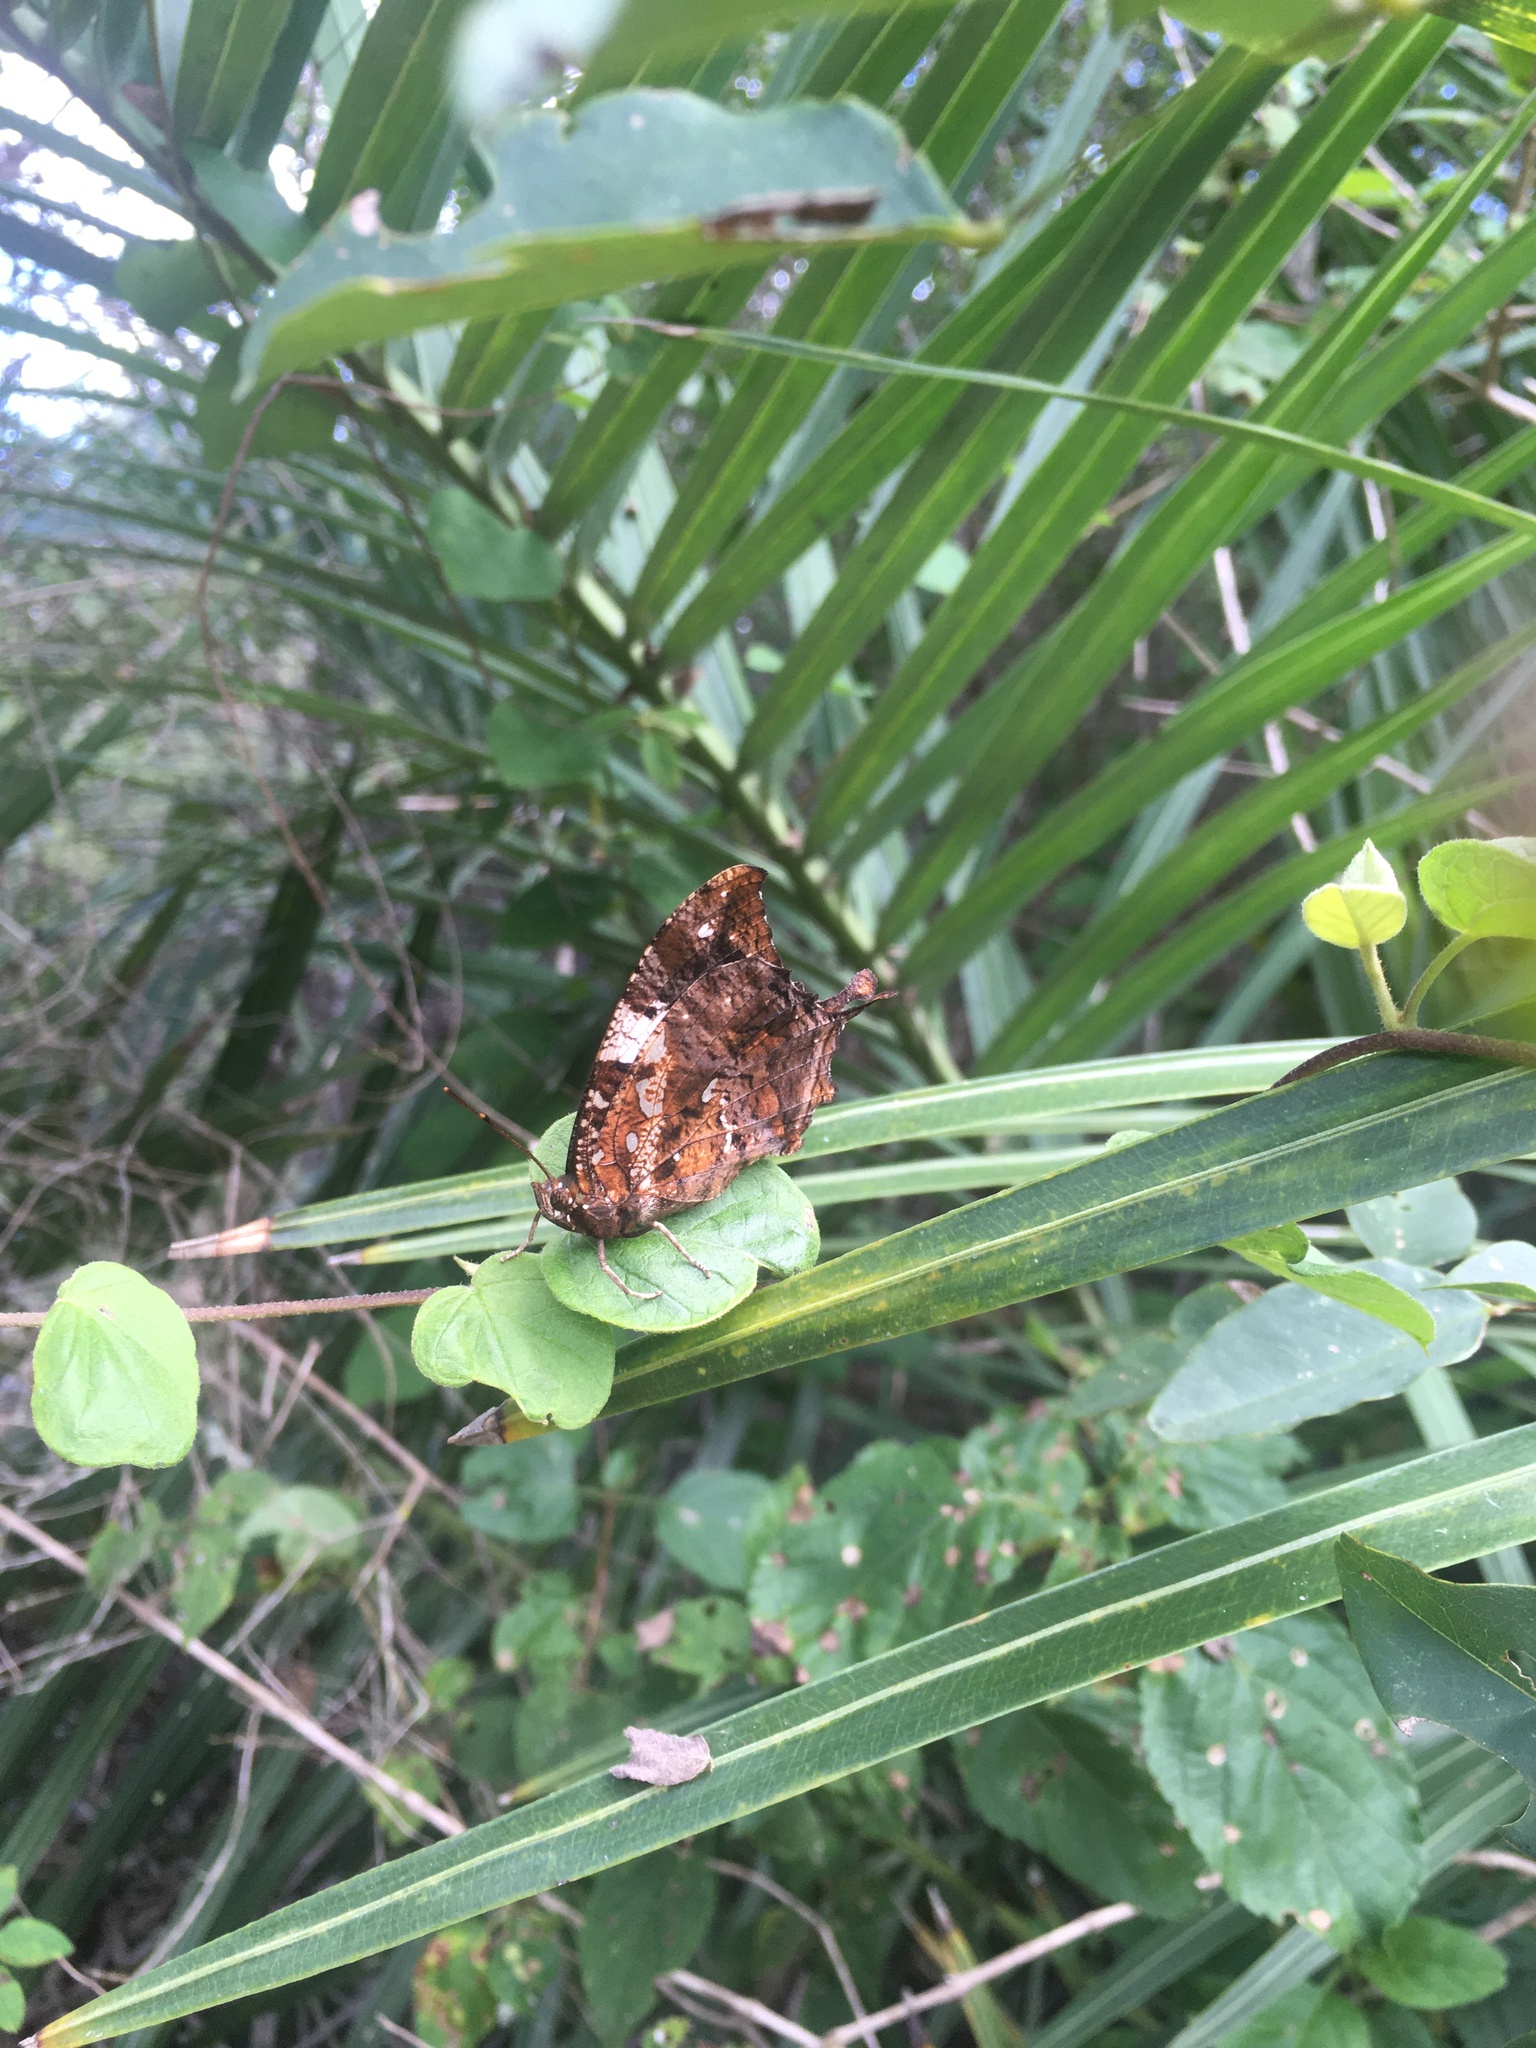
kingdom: Animalia
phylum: Arthropoda
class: Insecta
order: Lepidoptera
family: Nymphalidae
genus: Hypna
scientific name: Hypna clytemnestra
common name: Silver-studded leafwing
